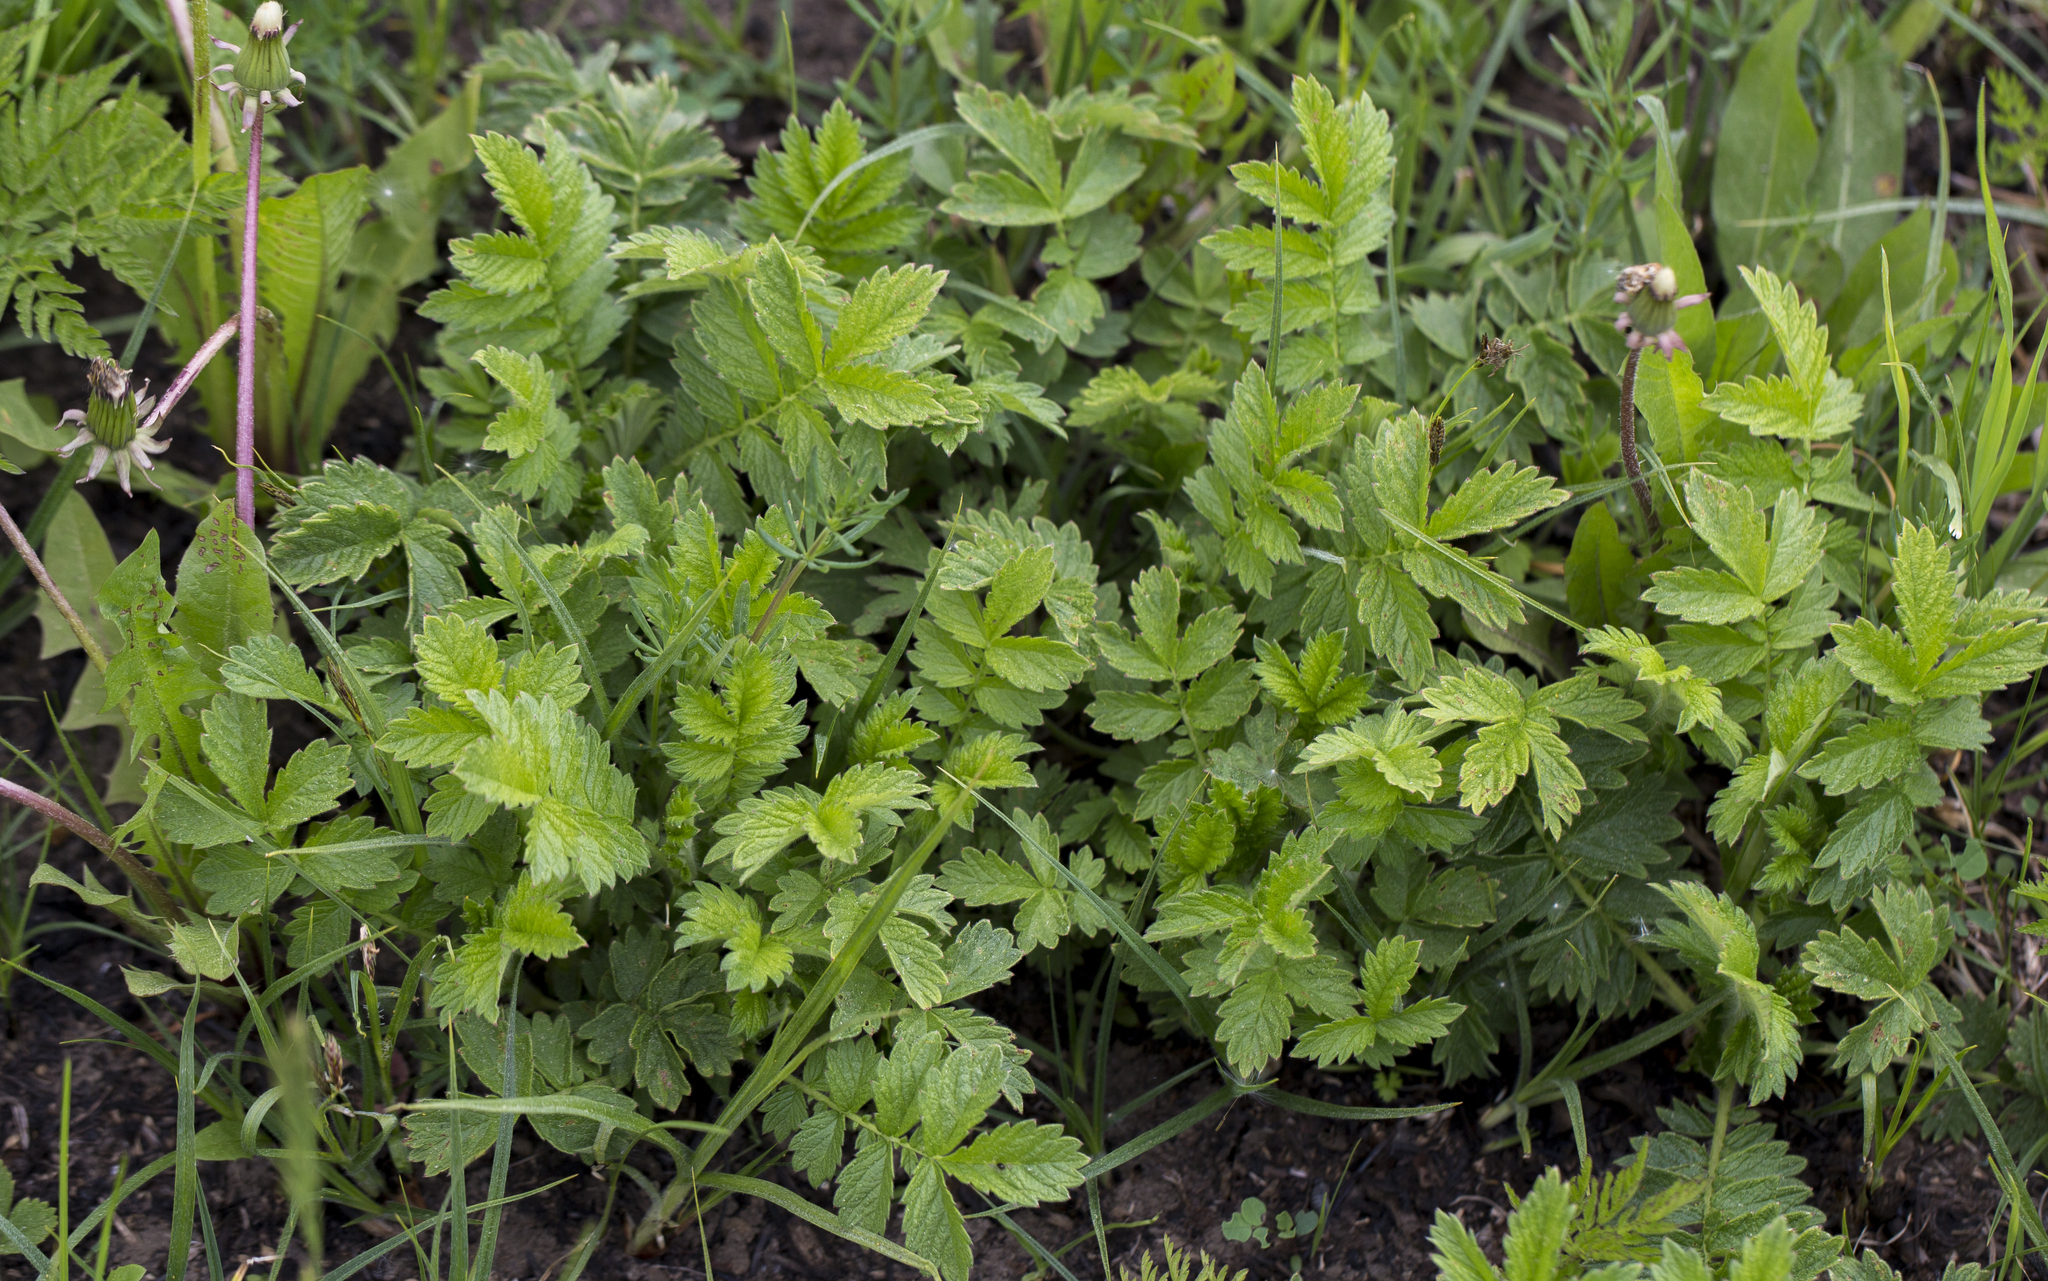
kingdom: Plantae
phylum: Tracheophyta
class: Magnoliopsida
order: Rosales
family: Rosaceae
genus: Agrimonia
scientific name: Agrimonia eupatoria
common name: Agrimony
